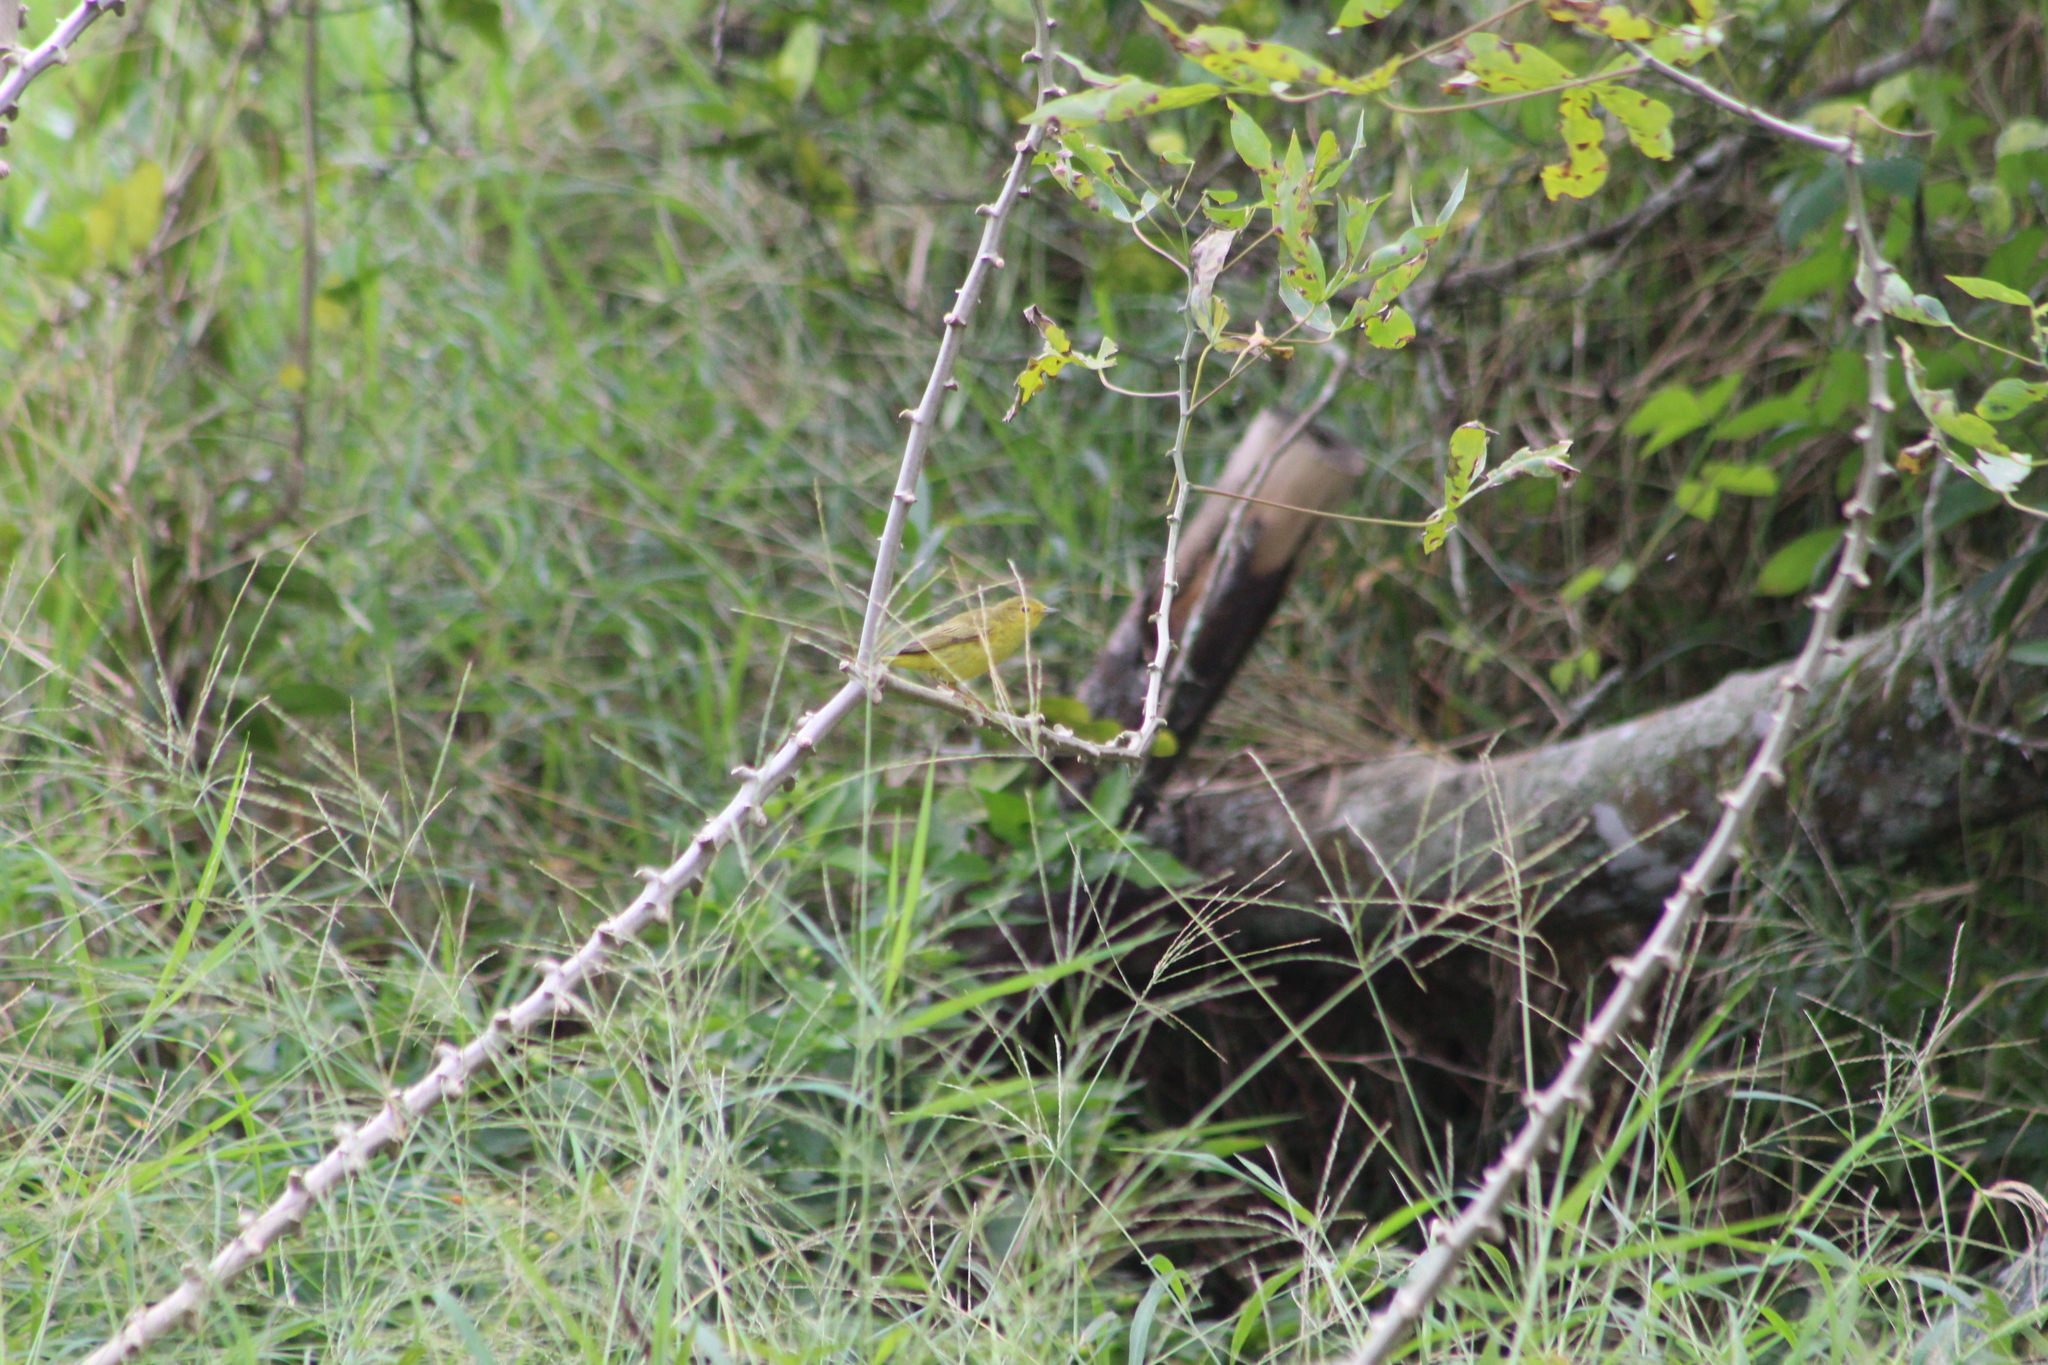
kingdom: Animalia
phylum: Chordata
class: Aves
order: Passeriformes
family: Parulidae
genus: Setophaga
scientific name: Setophaga petechia
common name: Yellow warbler
